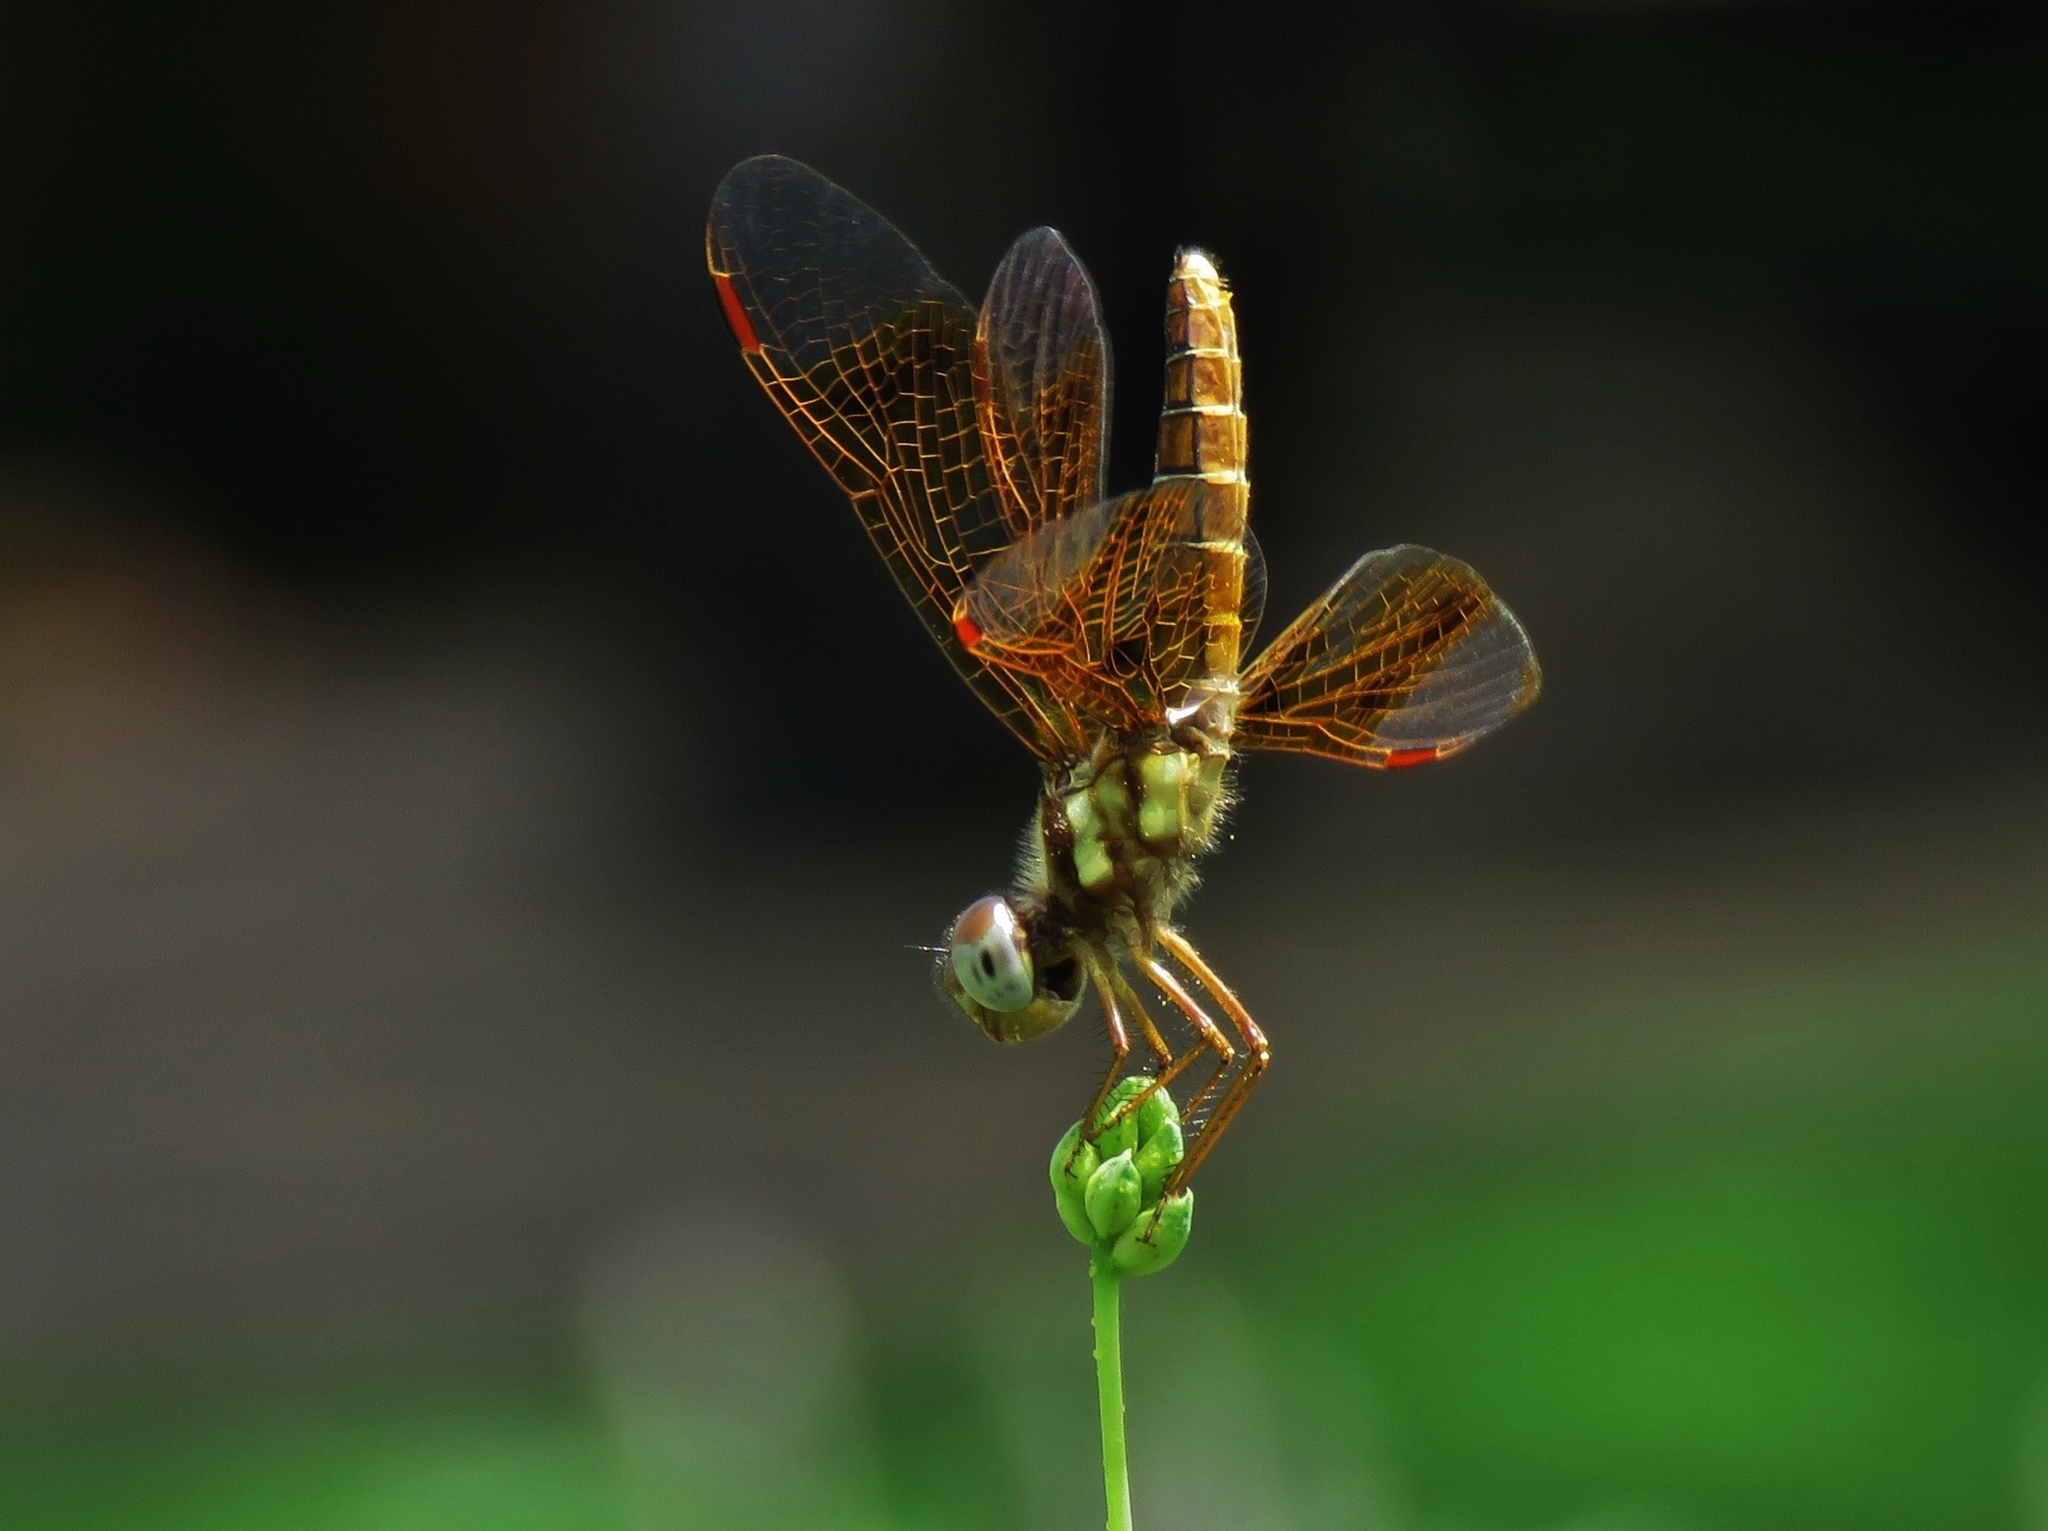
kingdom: Animalia
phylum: Arthropoda
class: Insecta
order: Odonata
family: Libellulidae
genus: Perithemis
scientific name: Perithemis tenera
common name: Eastern amberwing
